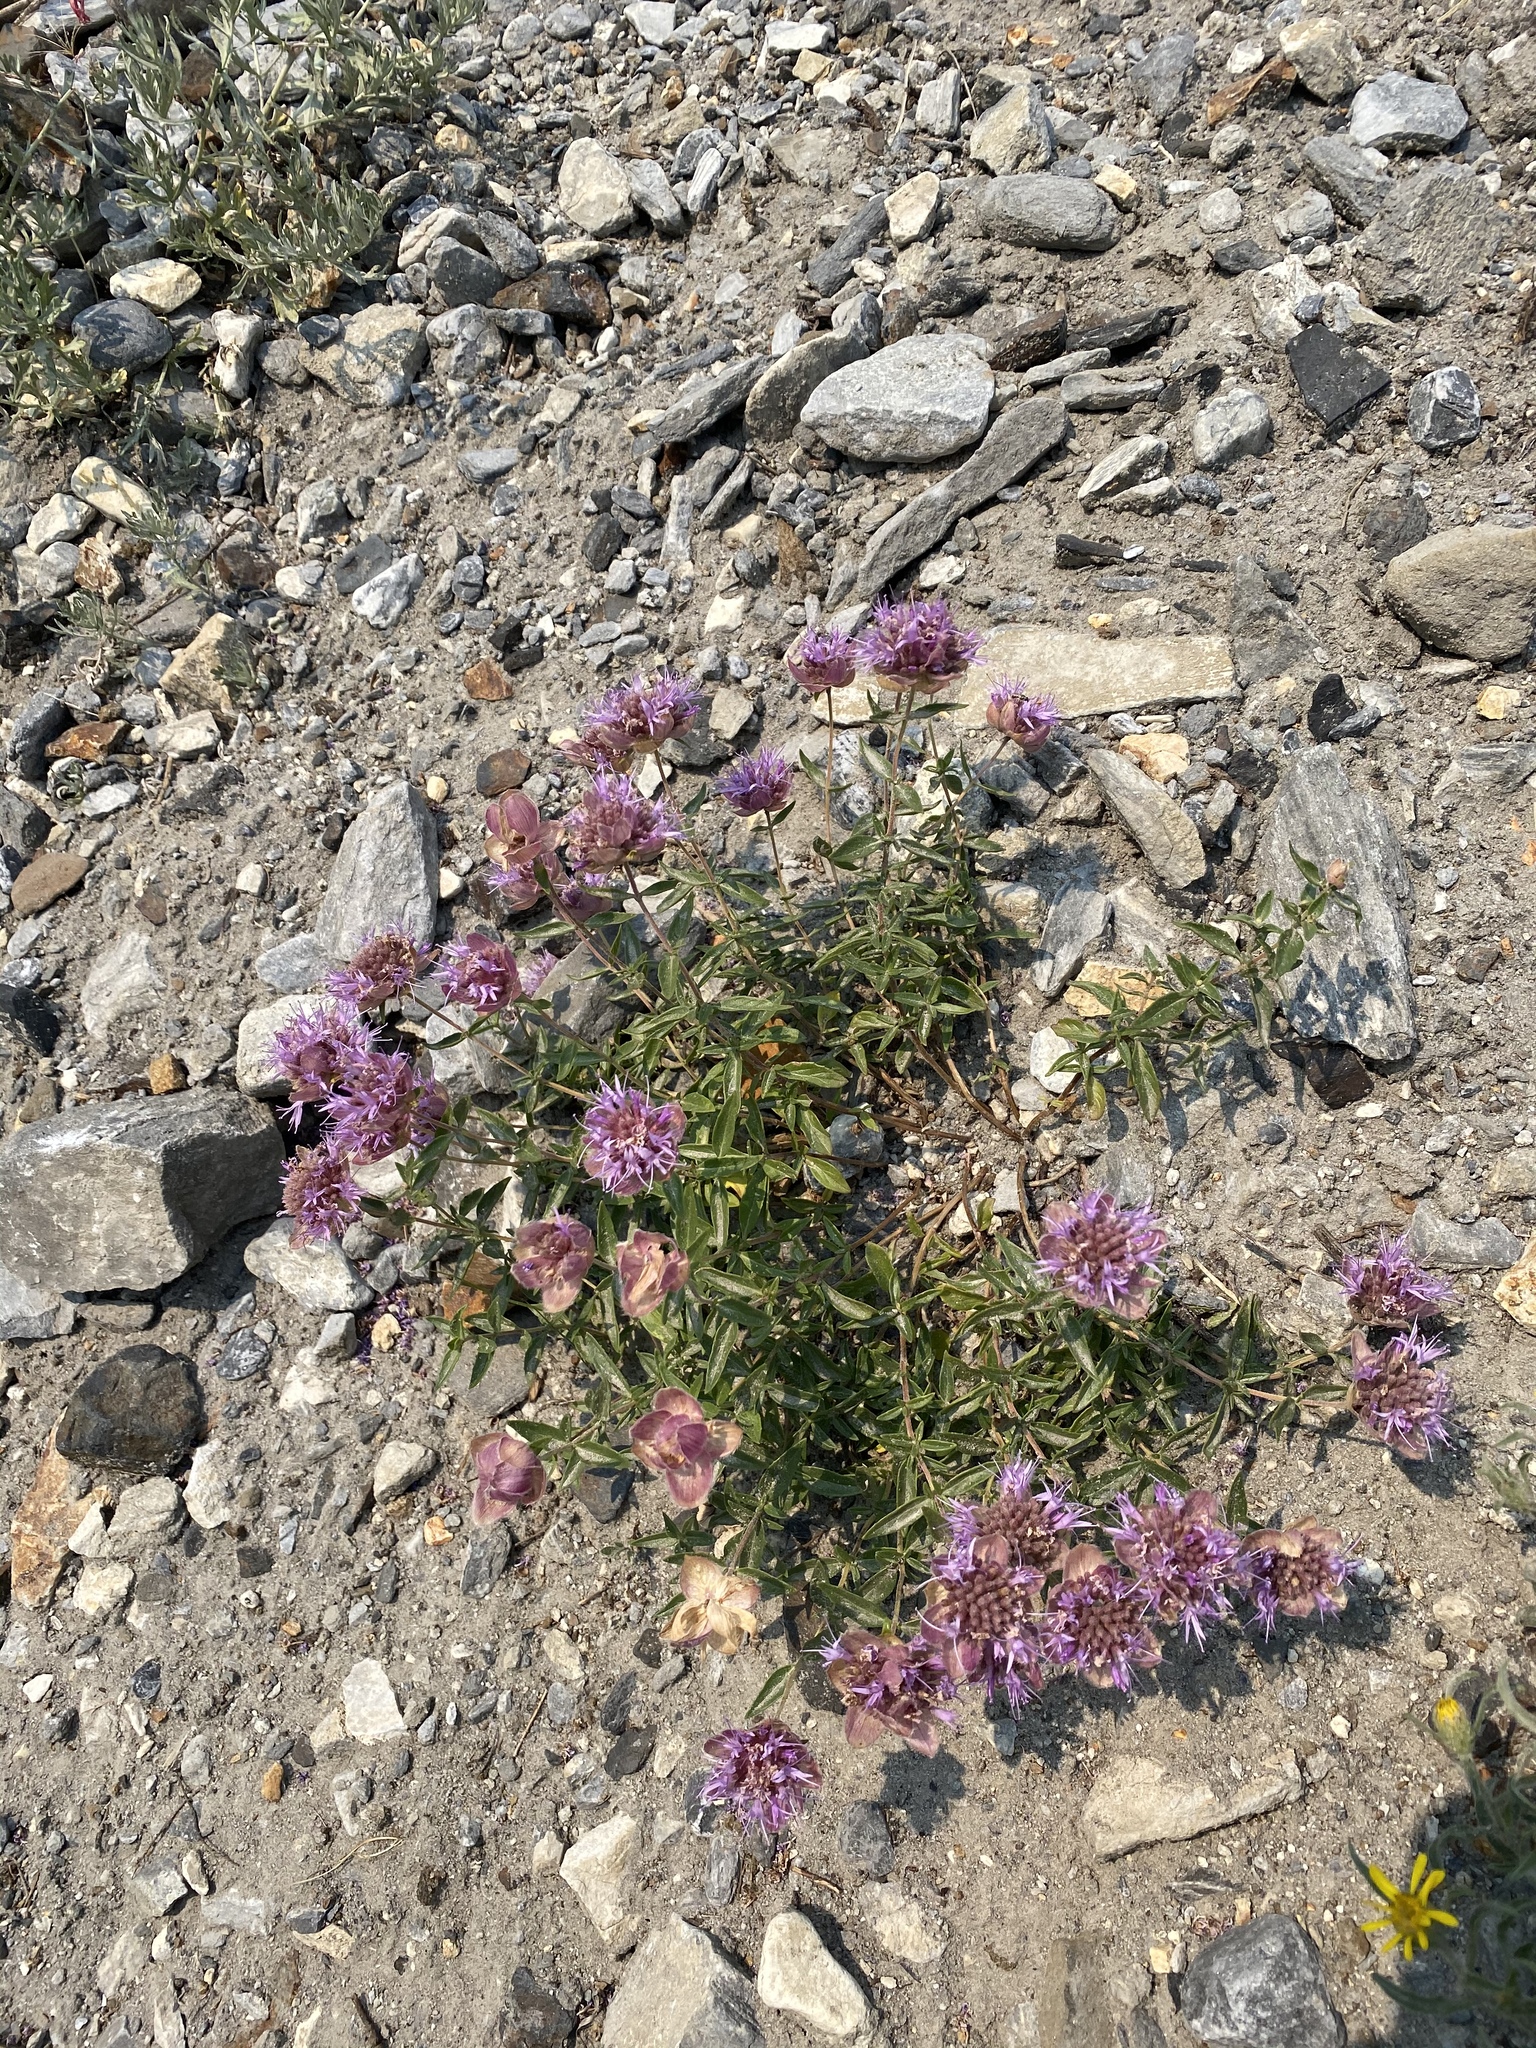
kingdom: Plantae
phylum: Tracheophyta
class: Magnoliopsida
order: Lamiales
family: Lamiaceae
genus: Monardella
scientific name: Monardella odoratissima
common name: Pacific monardella
